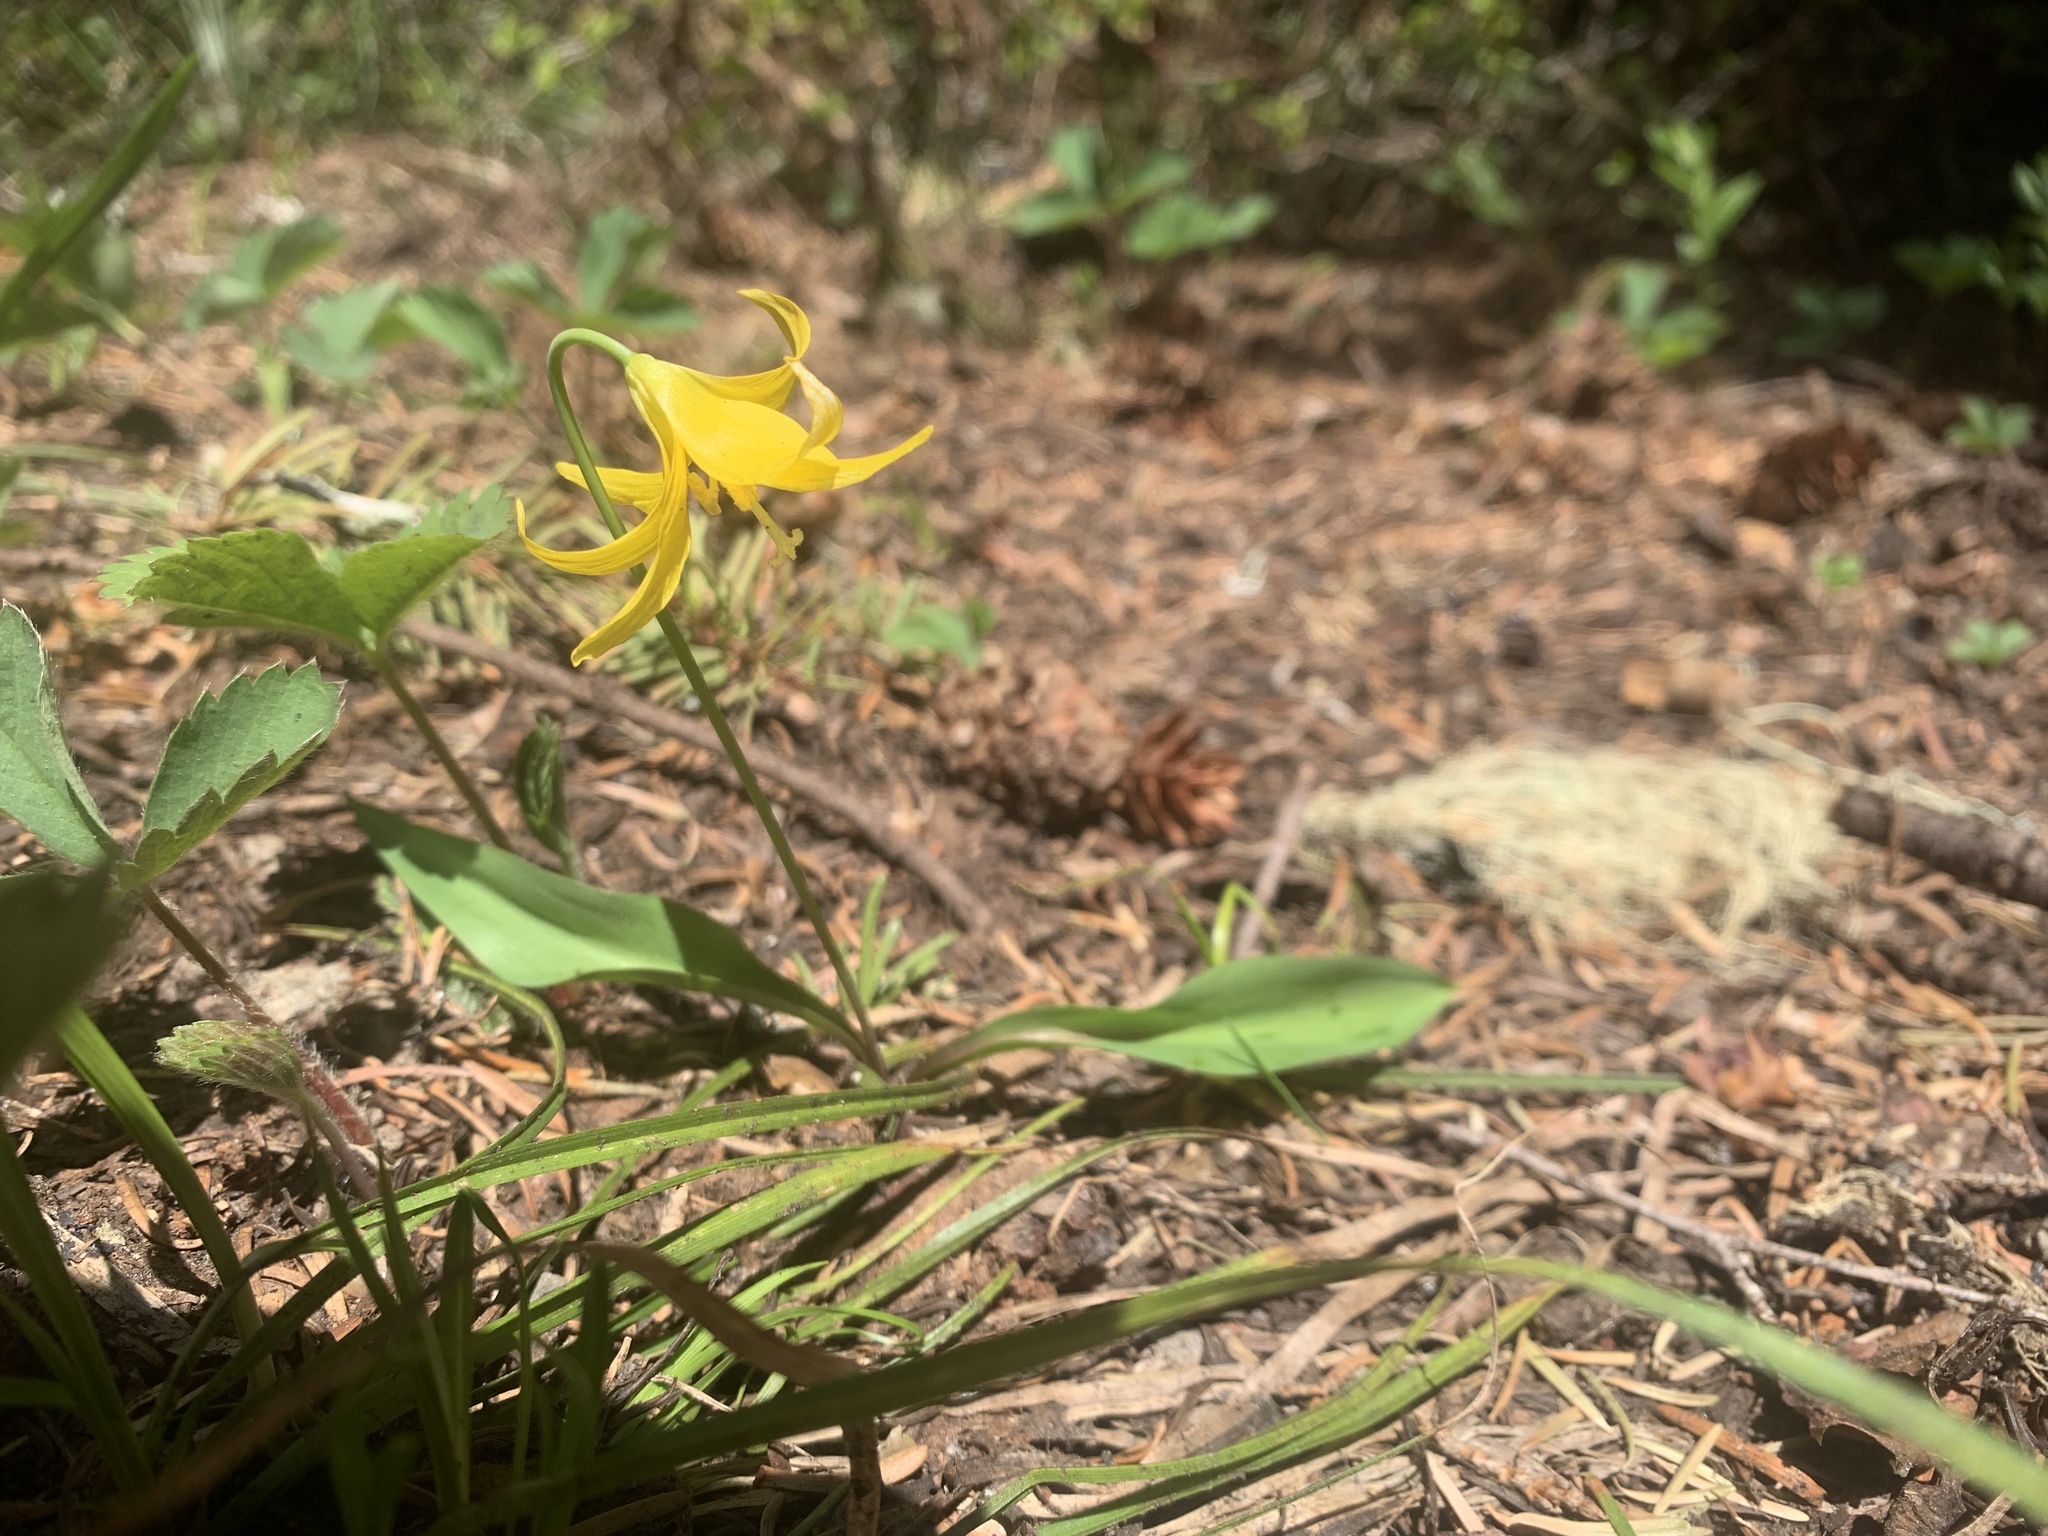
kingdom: Plantae
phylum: Tracheophyta
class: Liliopsida
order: Liliales
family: Liliaceae
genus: Erythronium
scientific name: Erythronium grandiflorum
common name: Avalanche-lily
